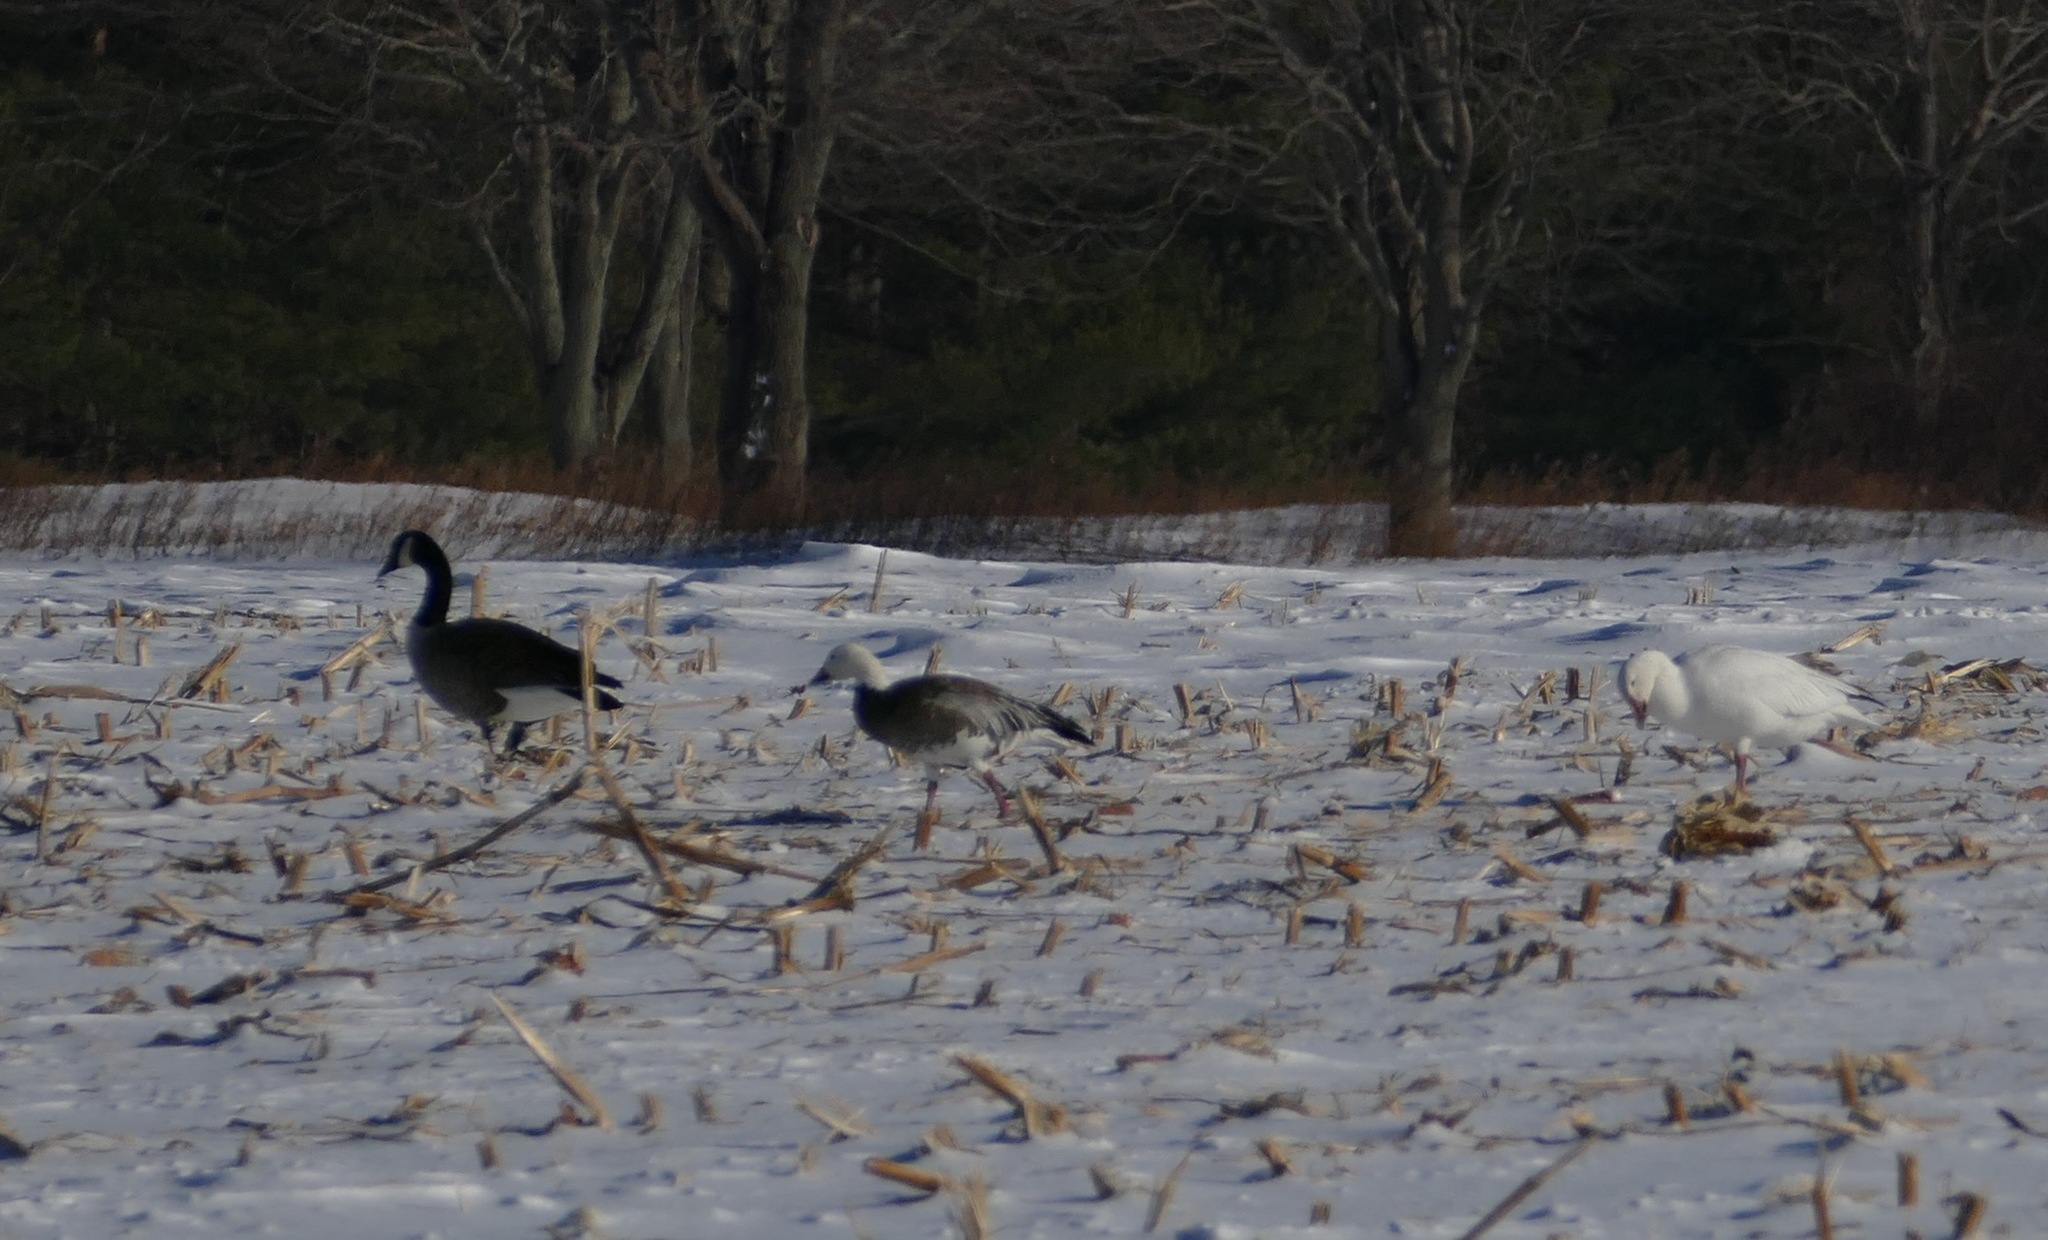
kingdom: Animalia
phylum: Chordata
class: Aves
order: Anseriformes
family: Anatidae
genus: Branta
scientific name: Branta canadensis
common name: Canada goose
